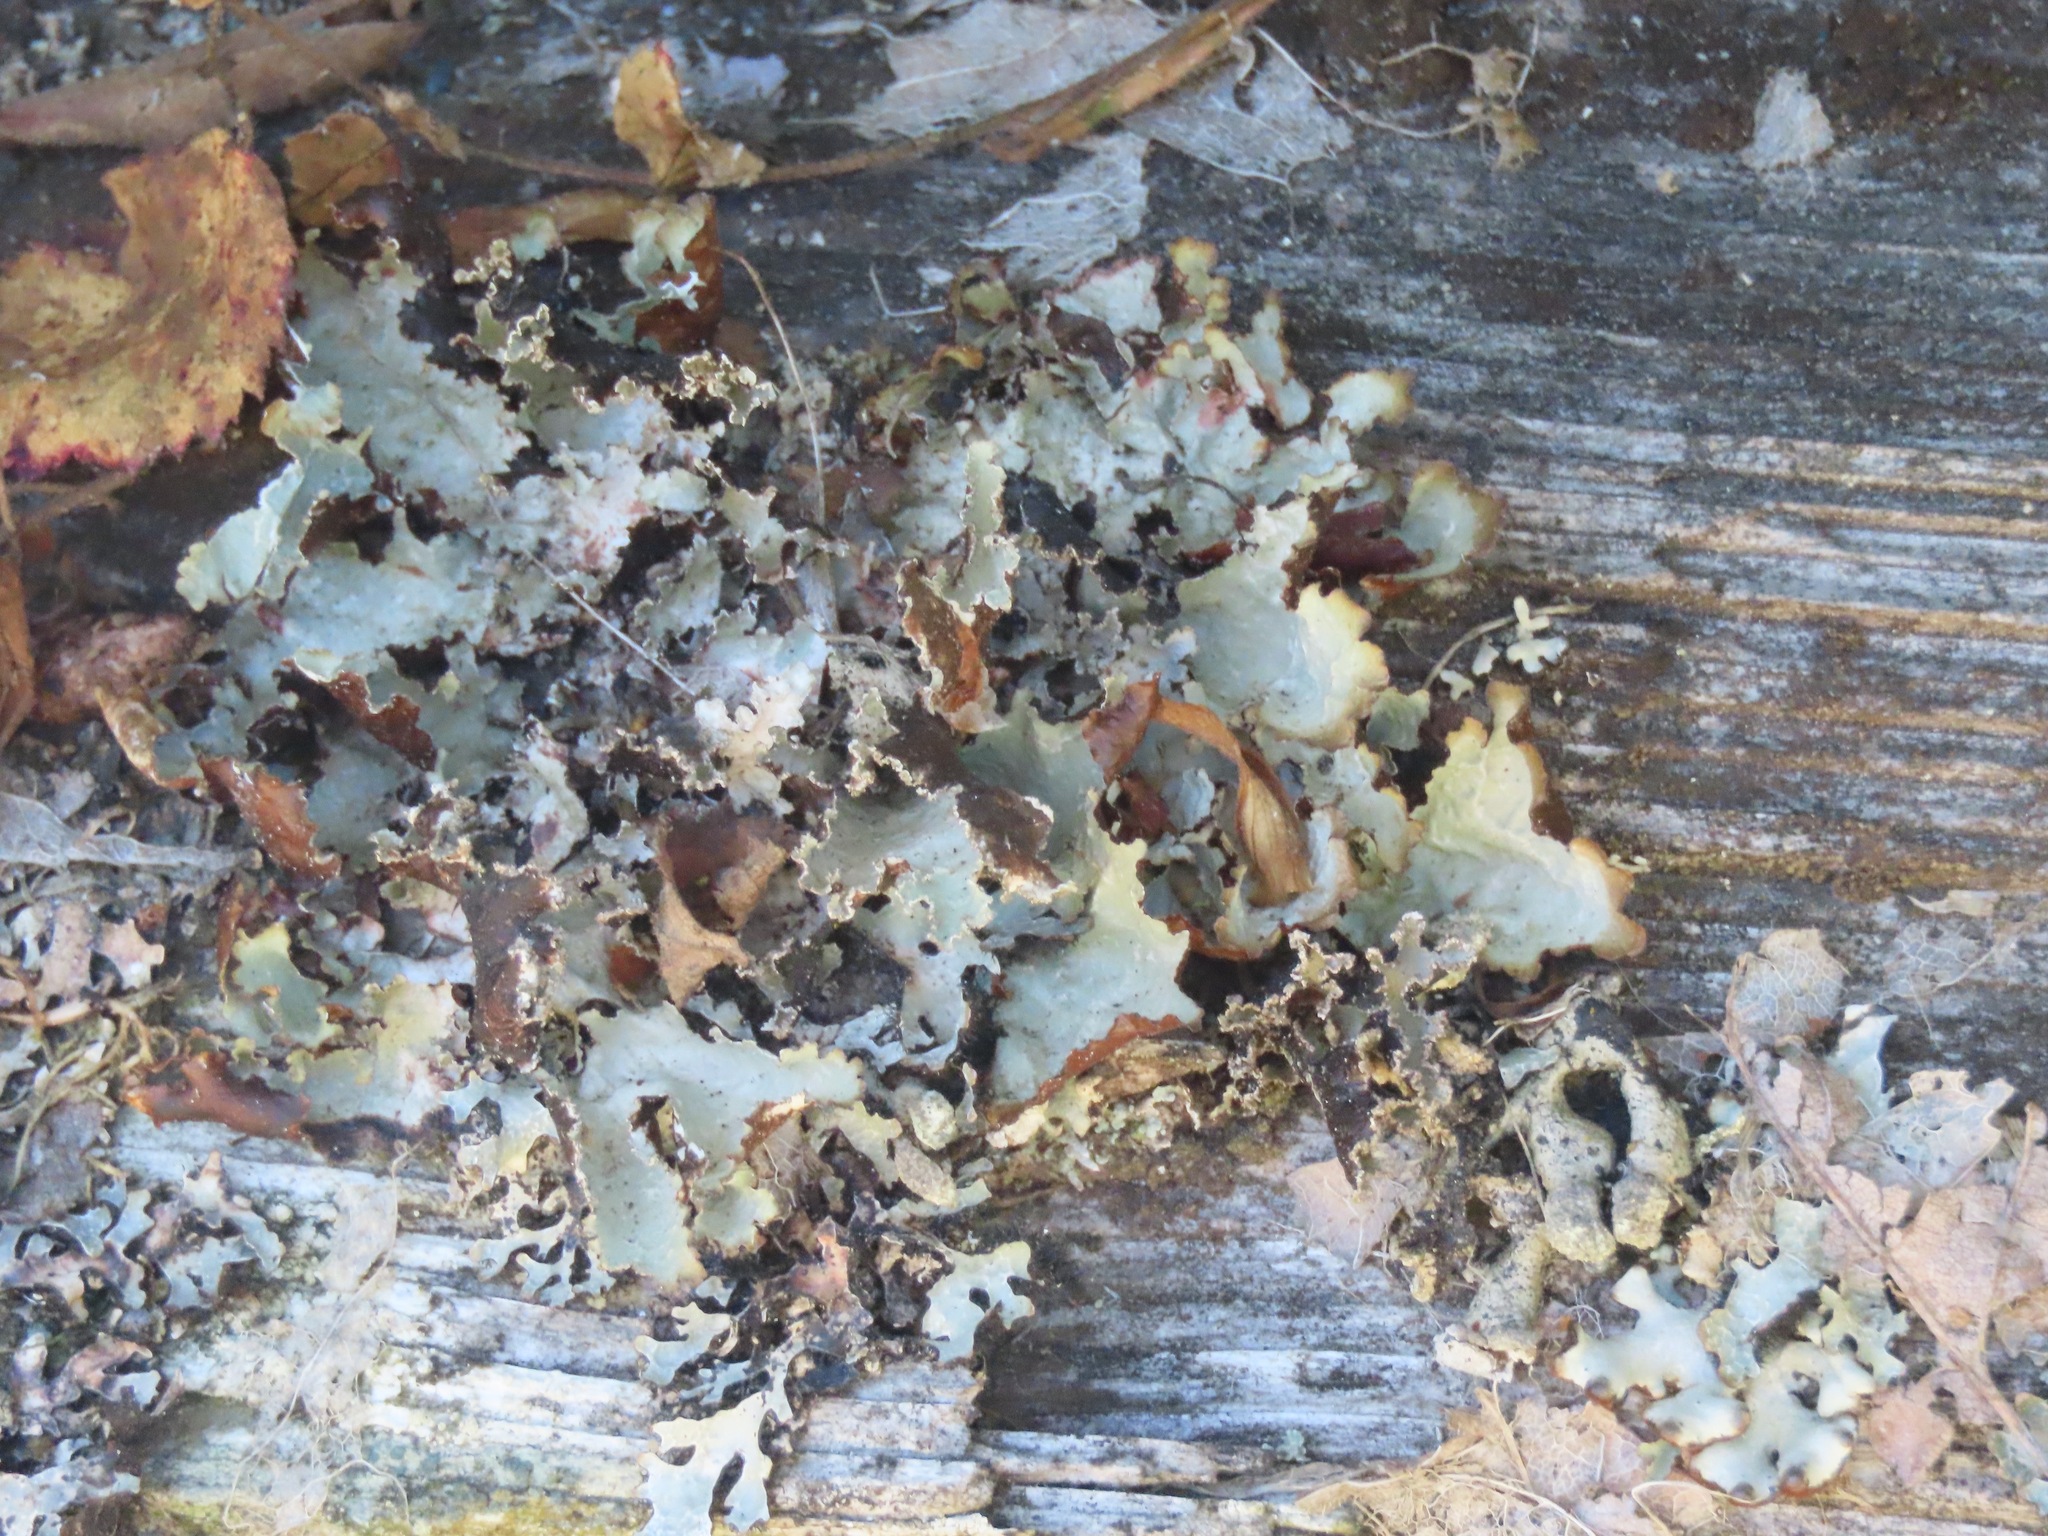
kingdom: Fungi
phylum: Ascomycota
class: Lecanoromycetes
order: Lecanorales
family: Parmeliaceae
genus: Platismatia
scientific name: Platismatia glauca
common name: Varied rag lichen
